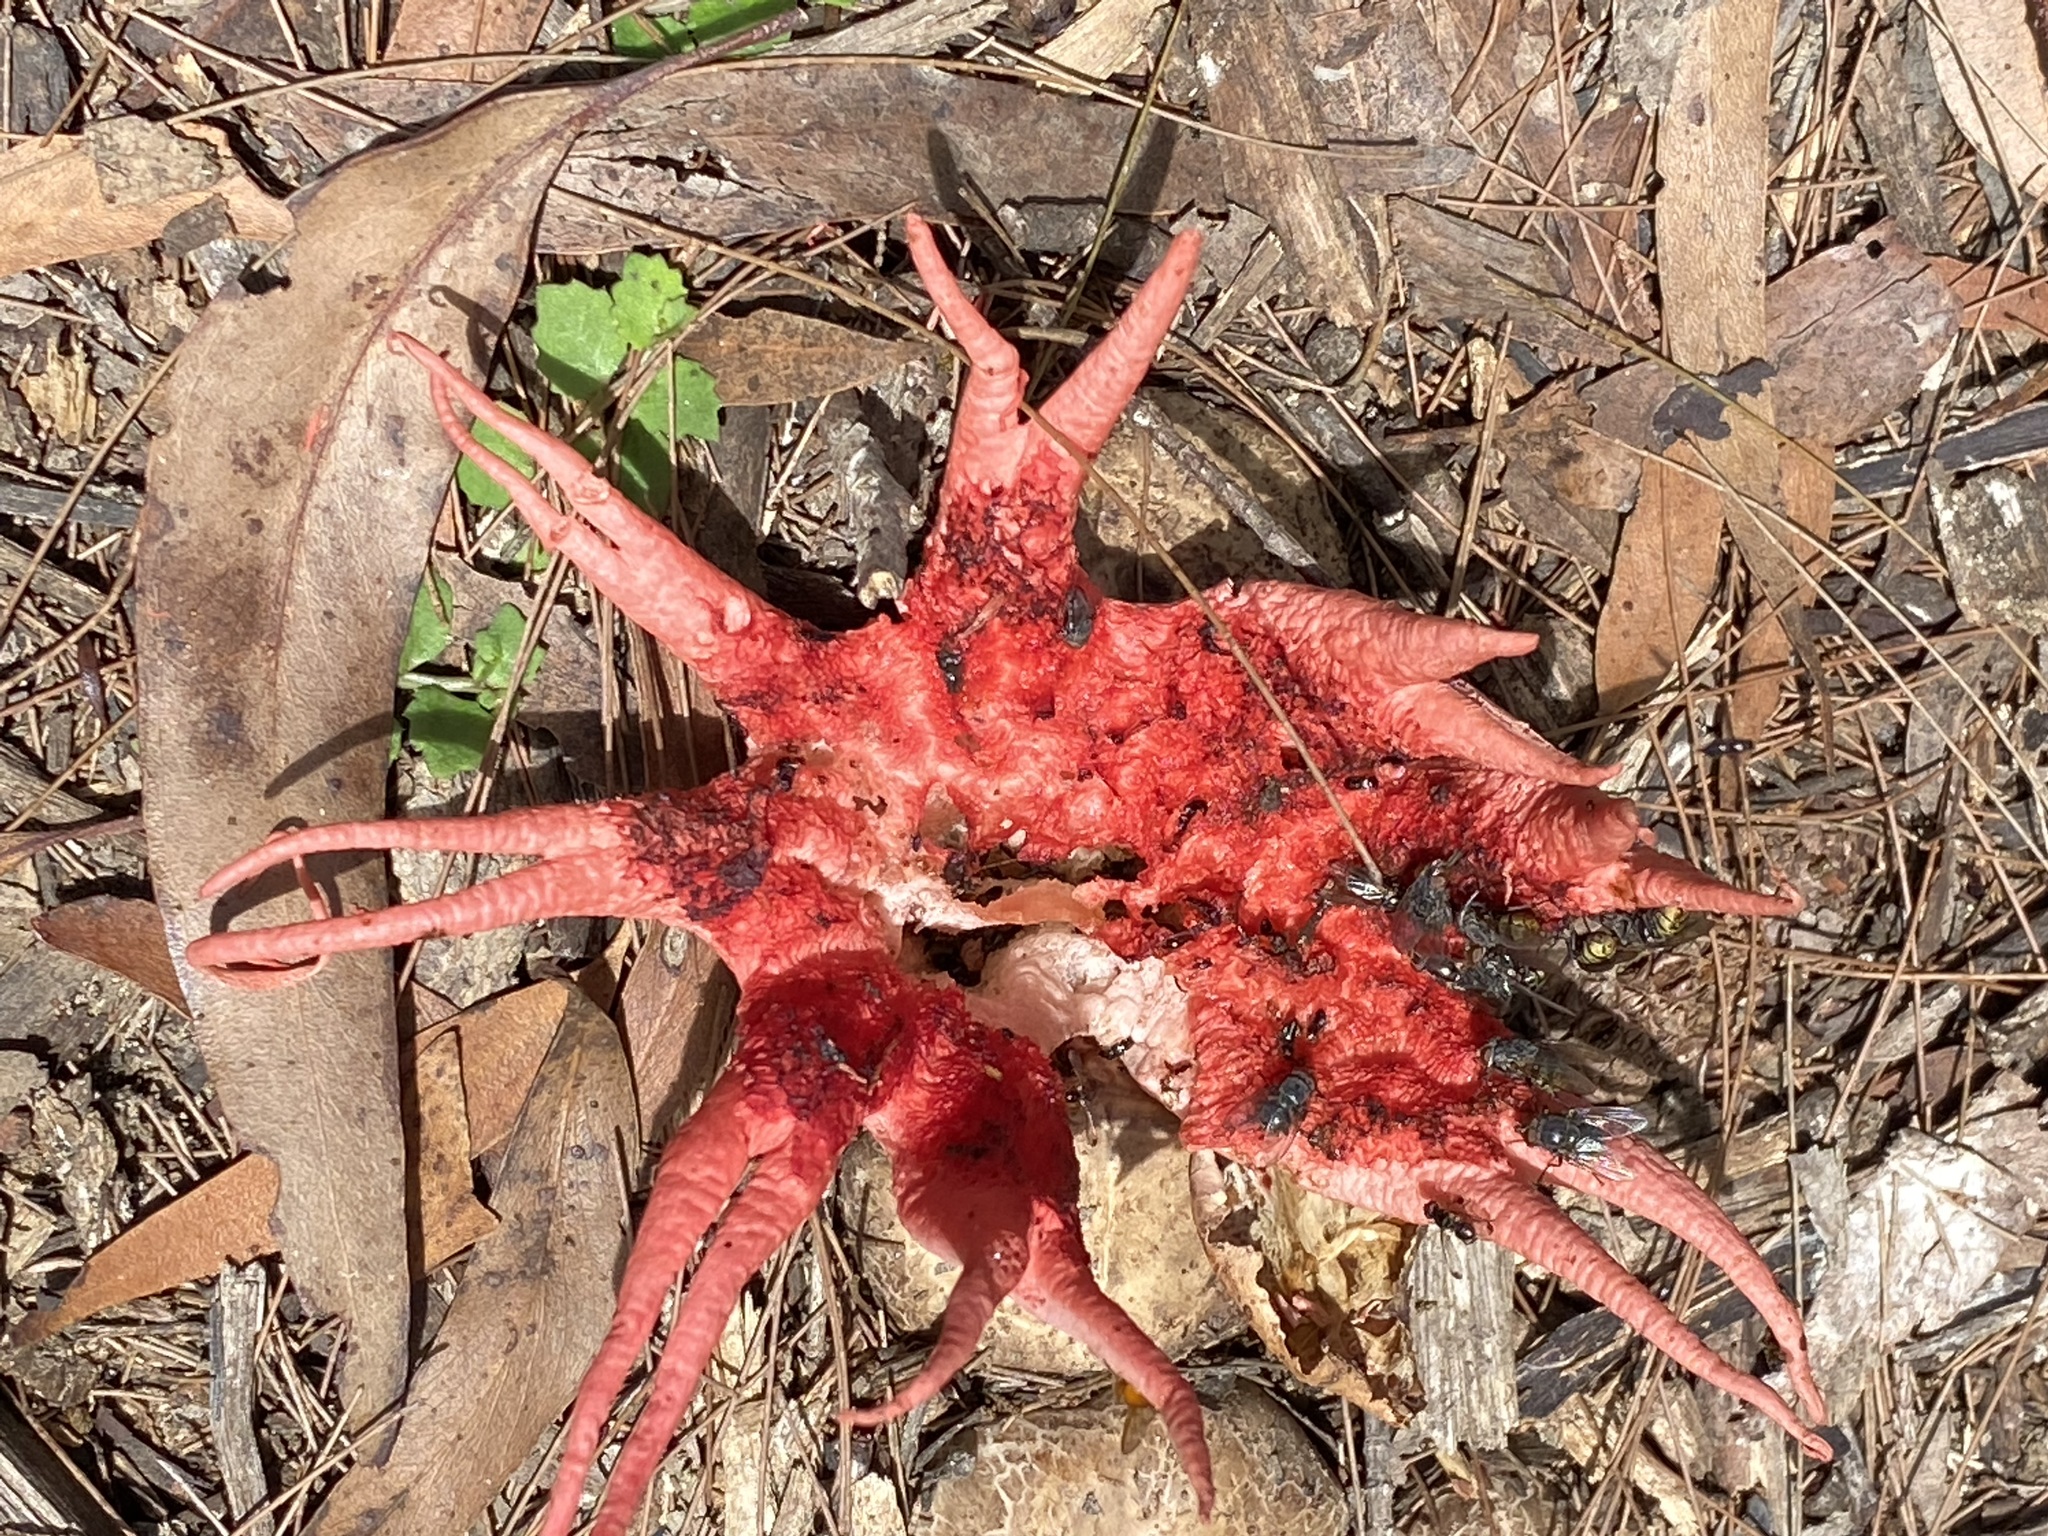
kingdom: Fungi
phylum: Basidiomycota
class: Agaricomycetes
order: Phallales
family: Phallaceae
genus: Aseroe
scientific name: Aseroe rubra
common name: Starfish fungus
